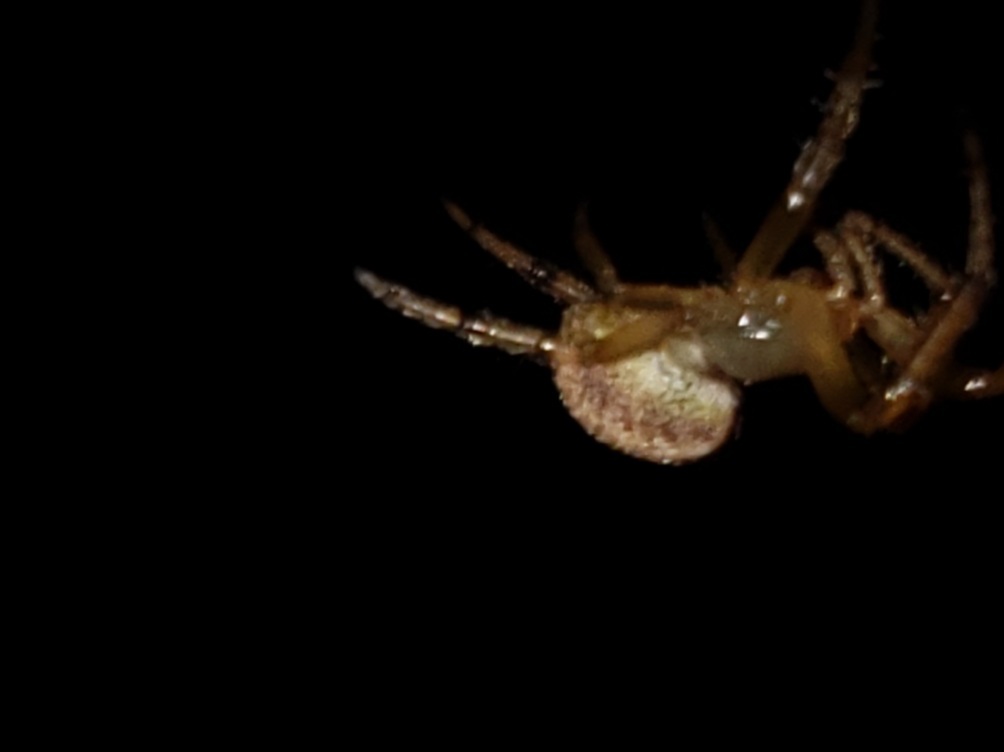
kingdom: Animalia
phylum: Arthropoda
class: Arachnida
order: Araneae
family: Araneidae
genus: Metazygia
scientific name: Metazygia zilloides
